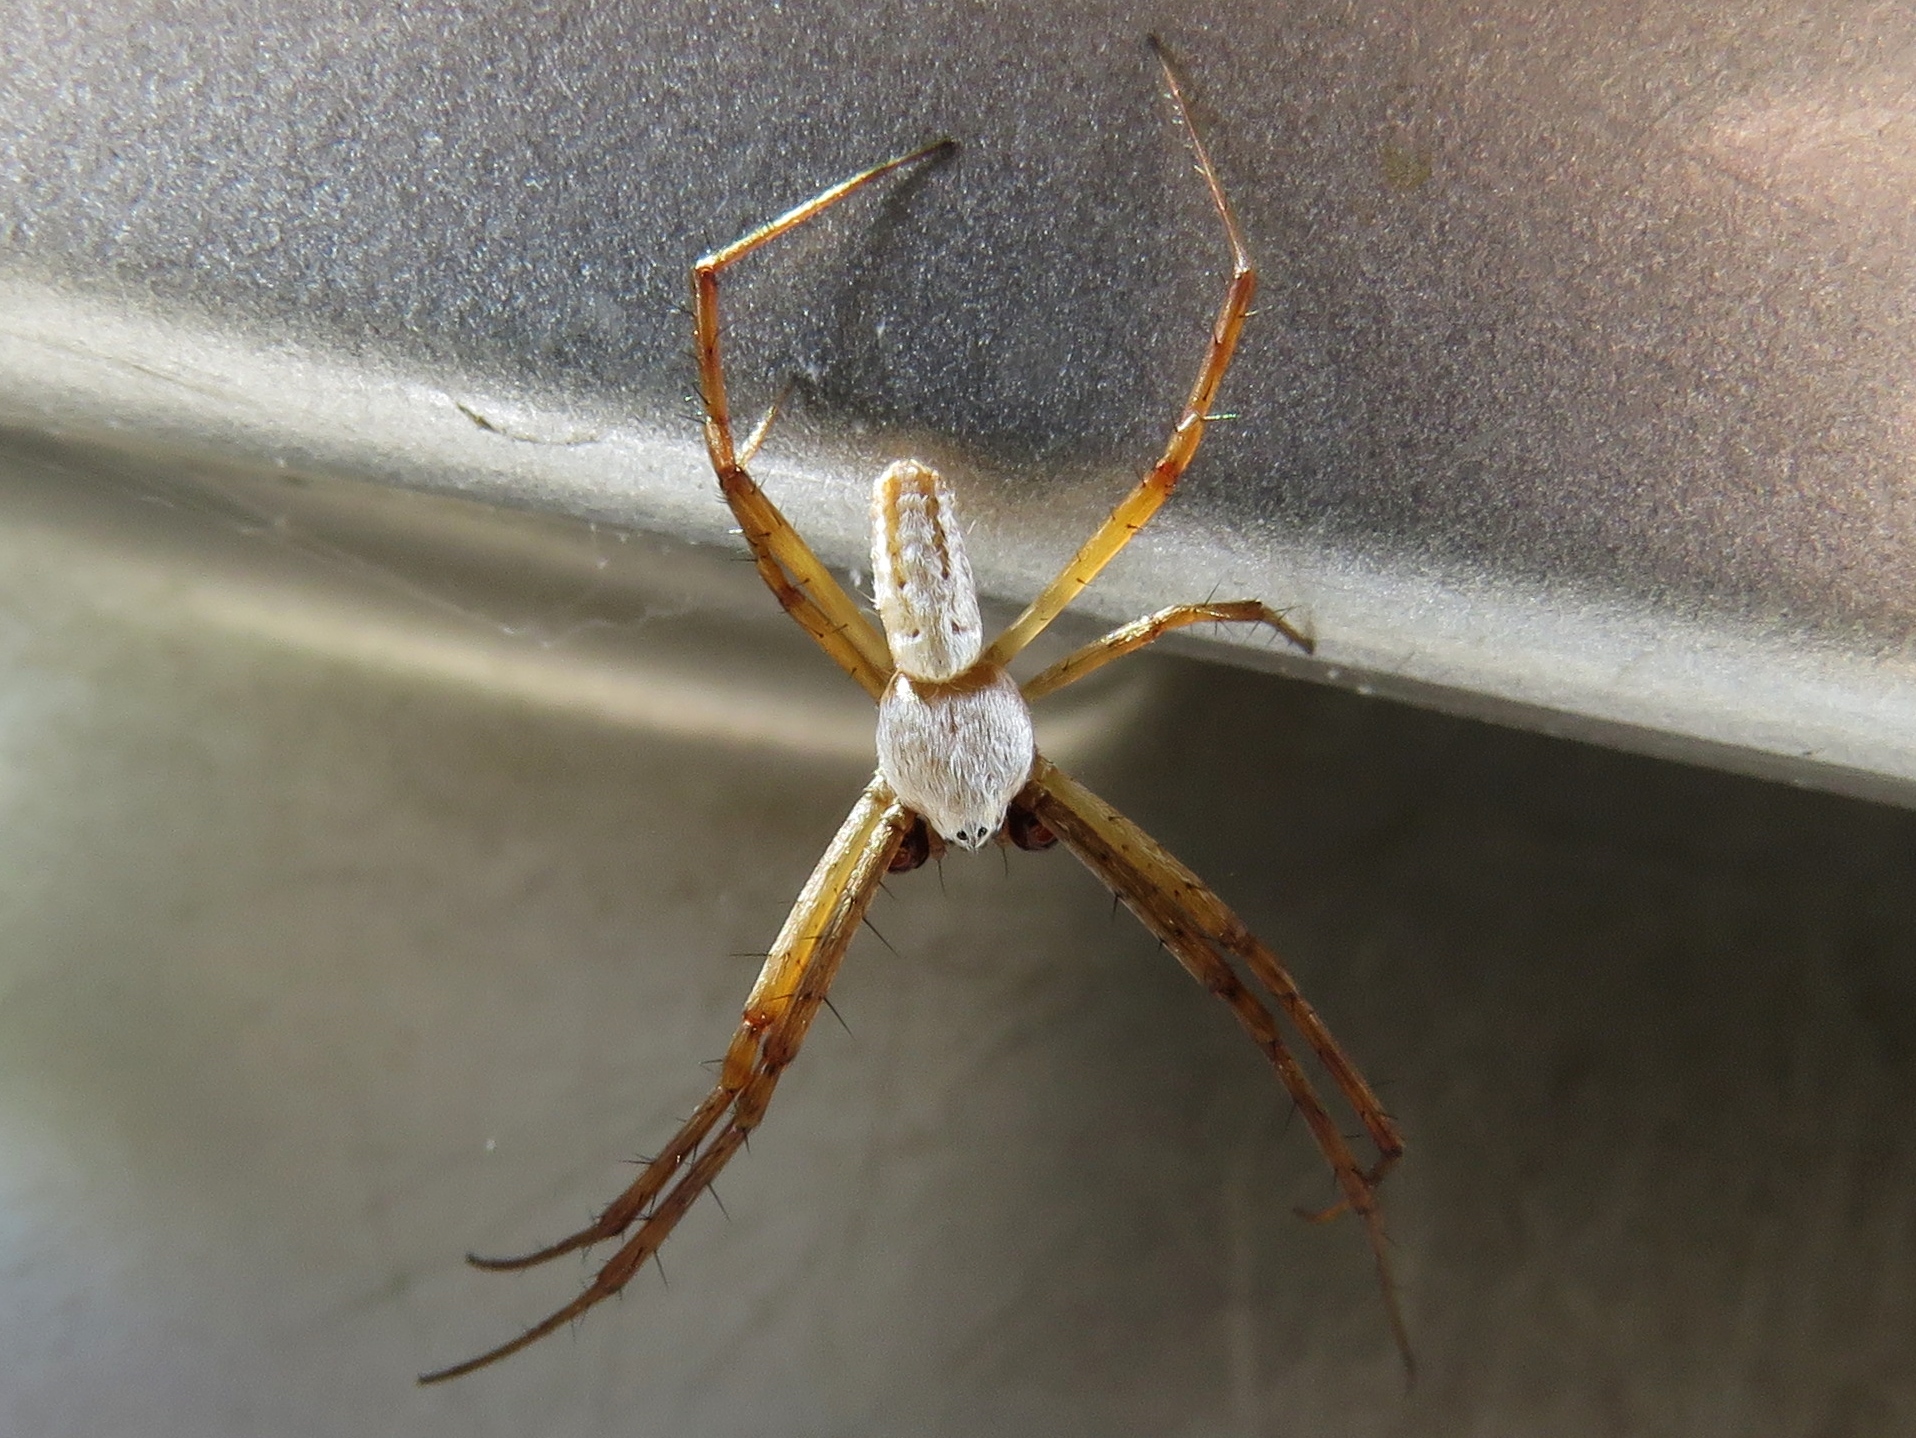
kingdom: Animalia
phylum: Arthropoda
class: Arachnida
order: Araneae
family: Araneidae
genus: Argiope
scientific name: Argiope trifasciata
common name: Banded garden spider
